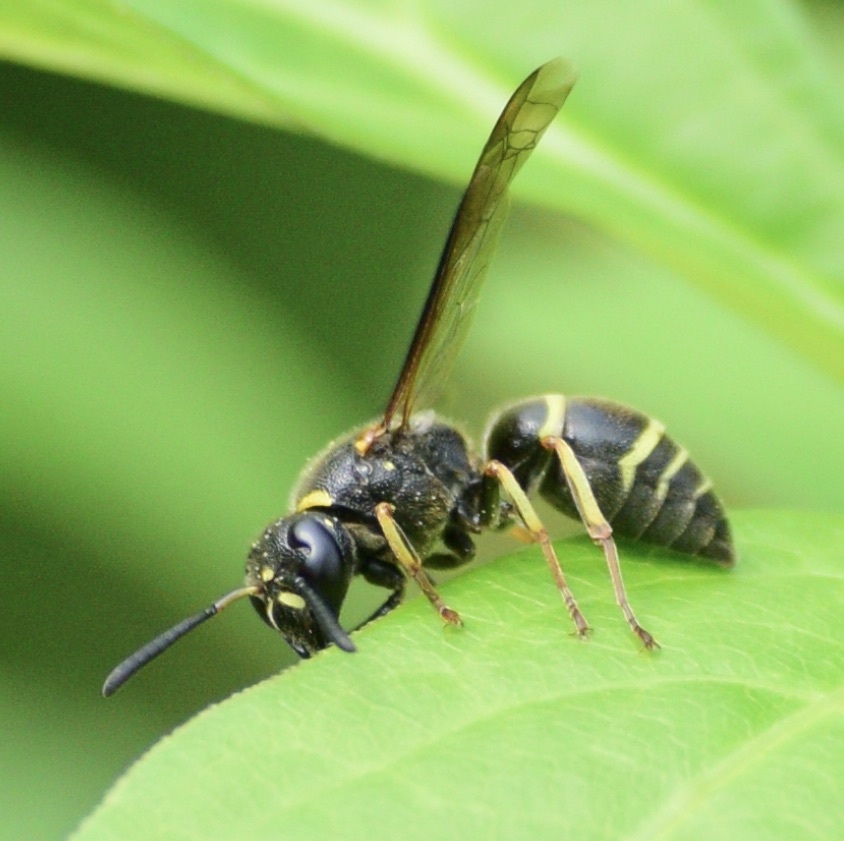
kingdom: Animalia
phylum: Arthropoda
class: Insecta
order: Hymenoptera
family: Eumenidae
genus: Euodynerus
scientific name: Euodynerus foraminatus
